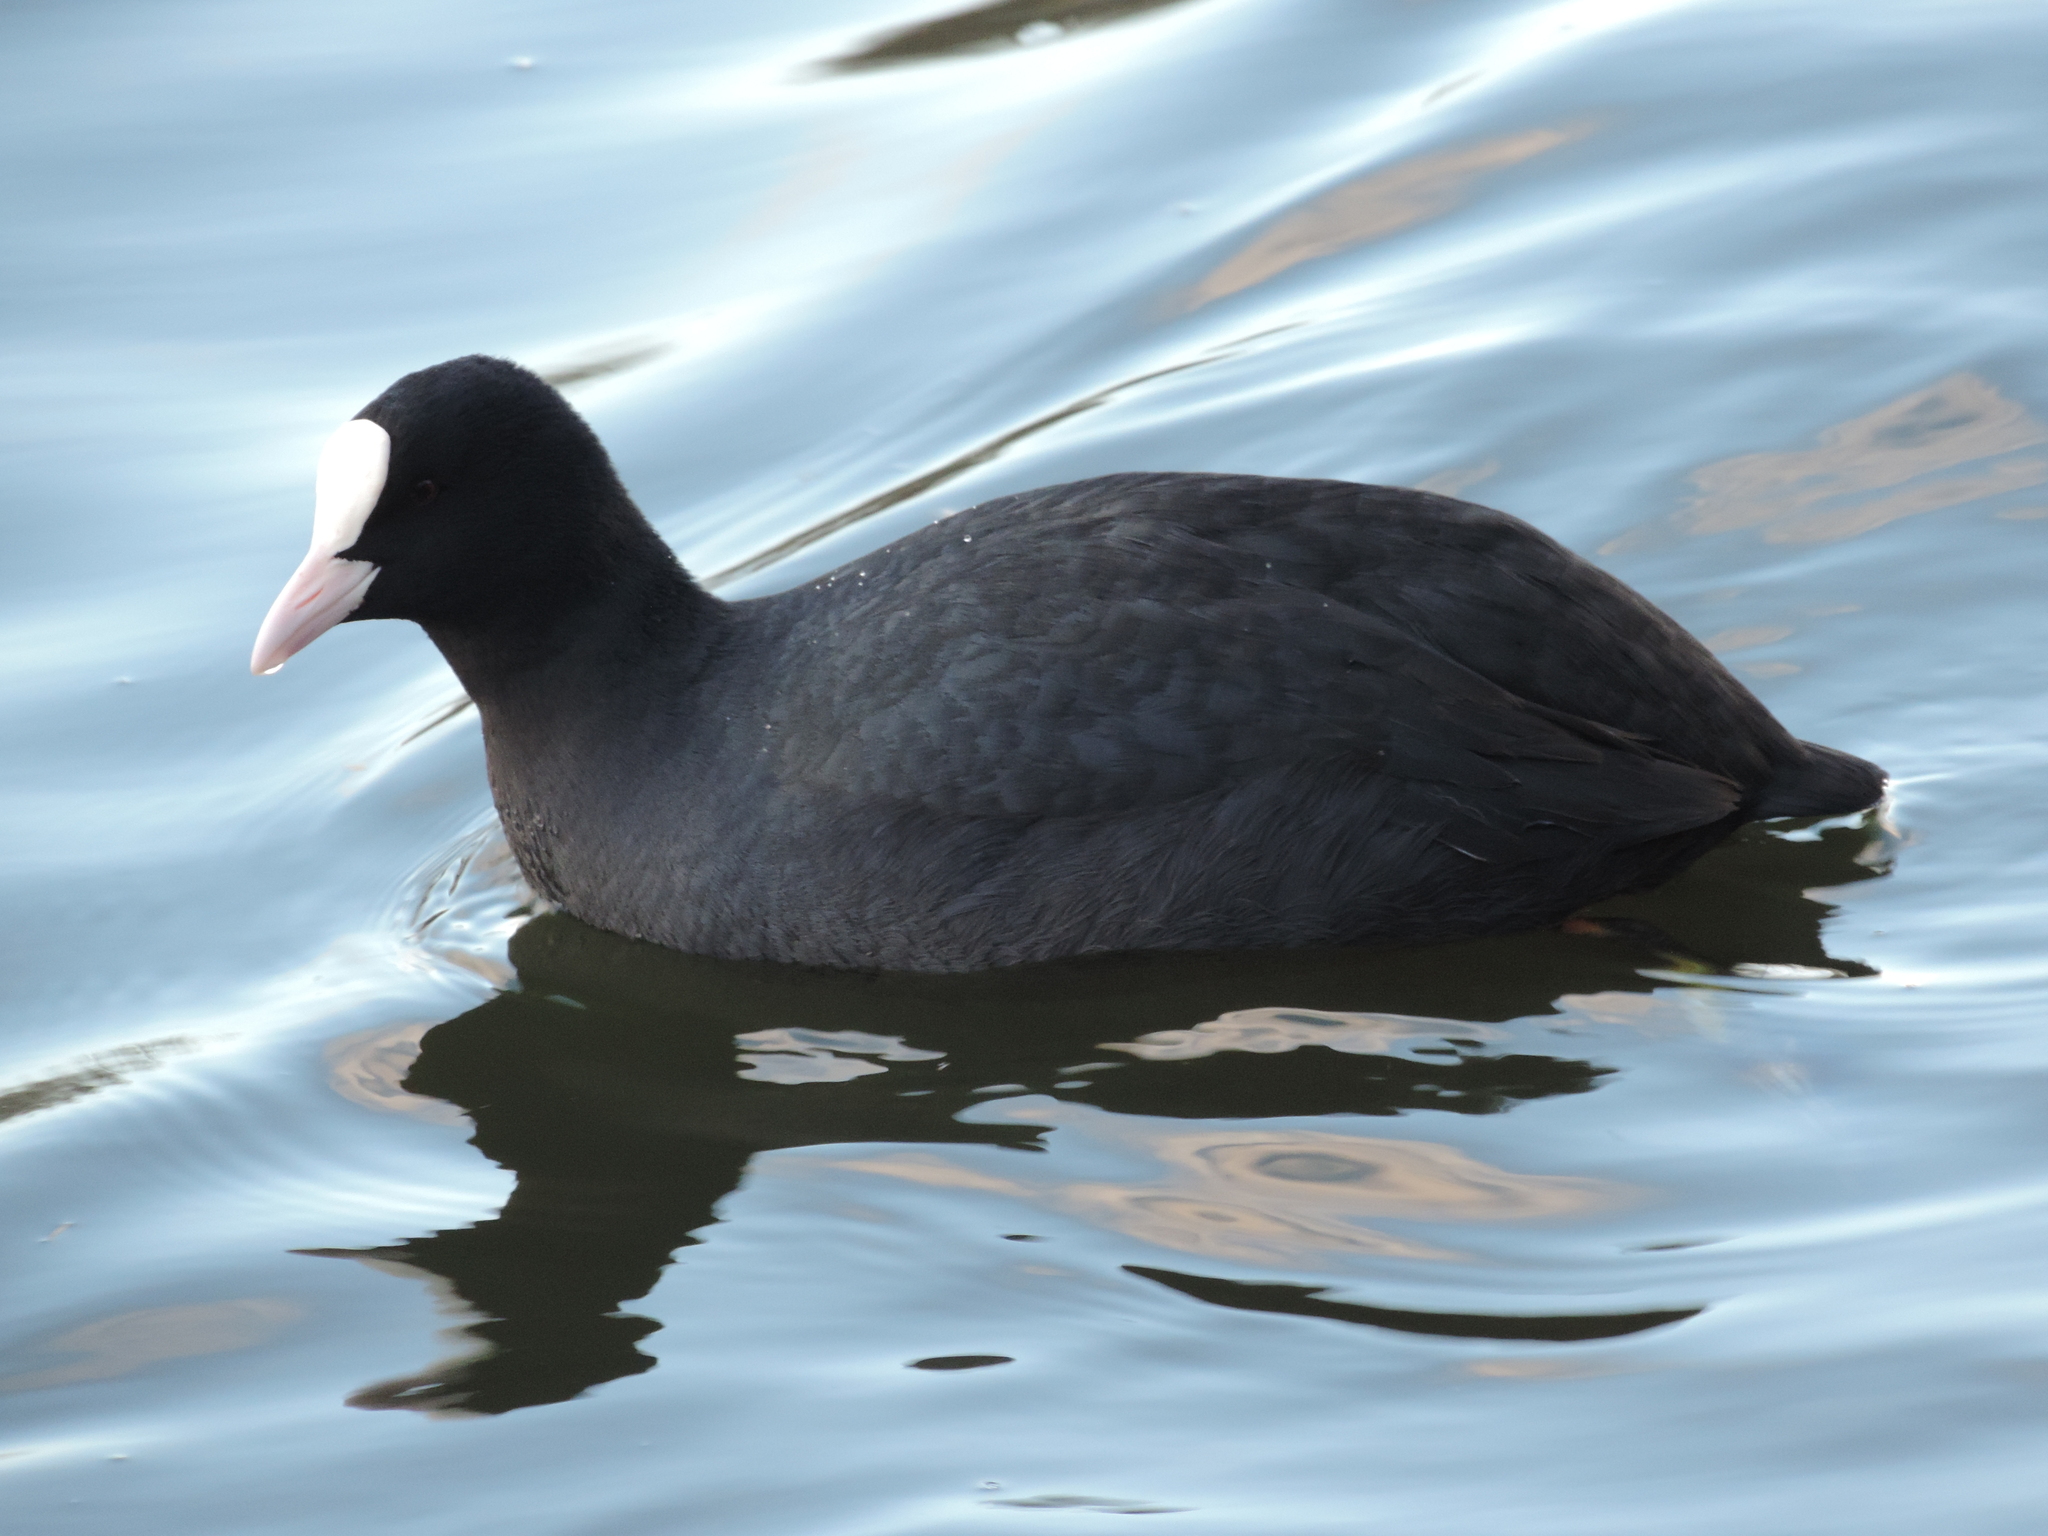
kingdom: Animalia
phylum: Chordata
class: Aves
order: Gruiformes
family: Rallidae
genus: Fulica
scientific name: Fulica atra
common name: Eurasian coot
